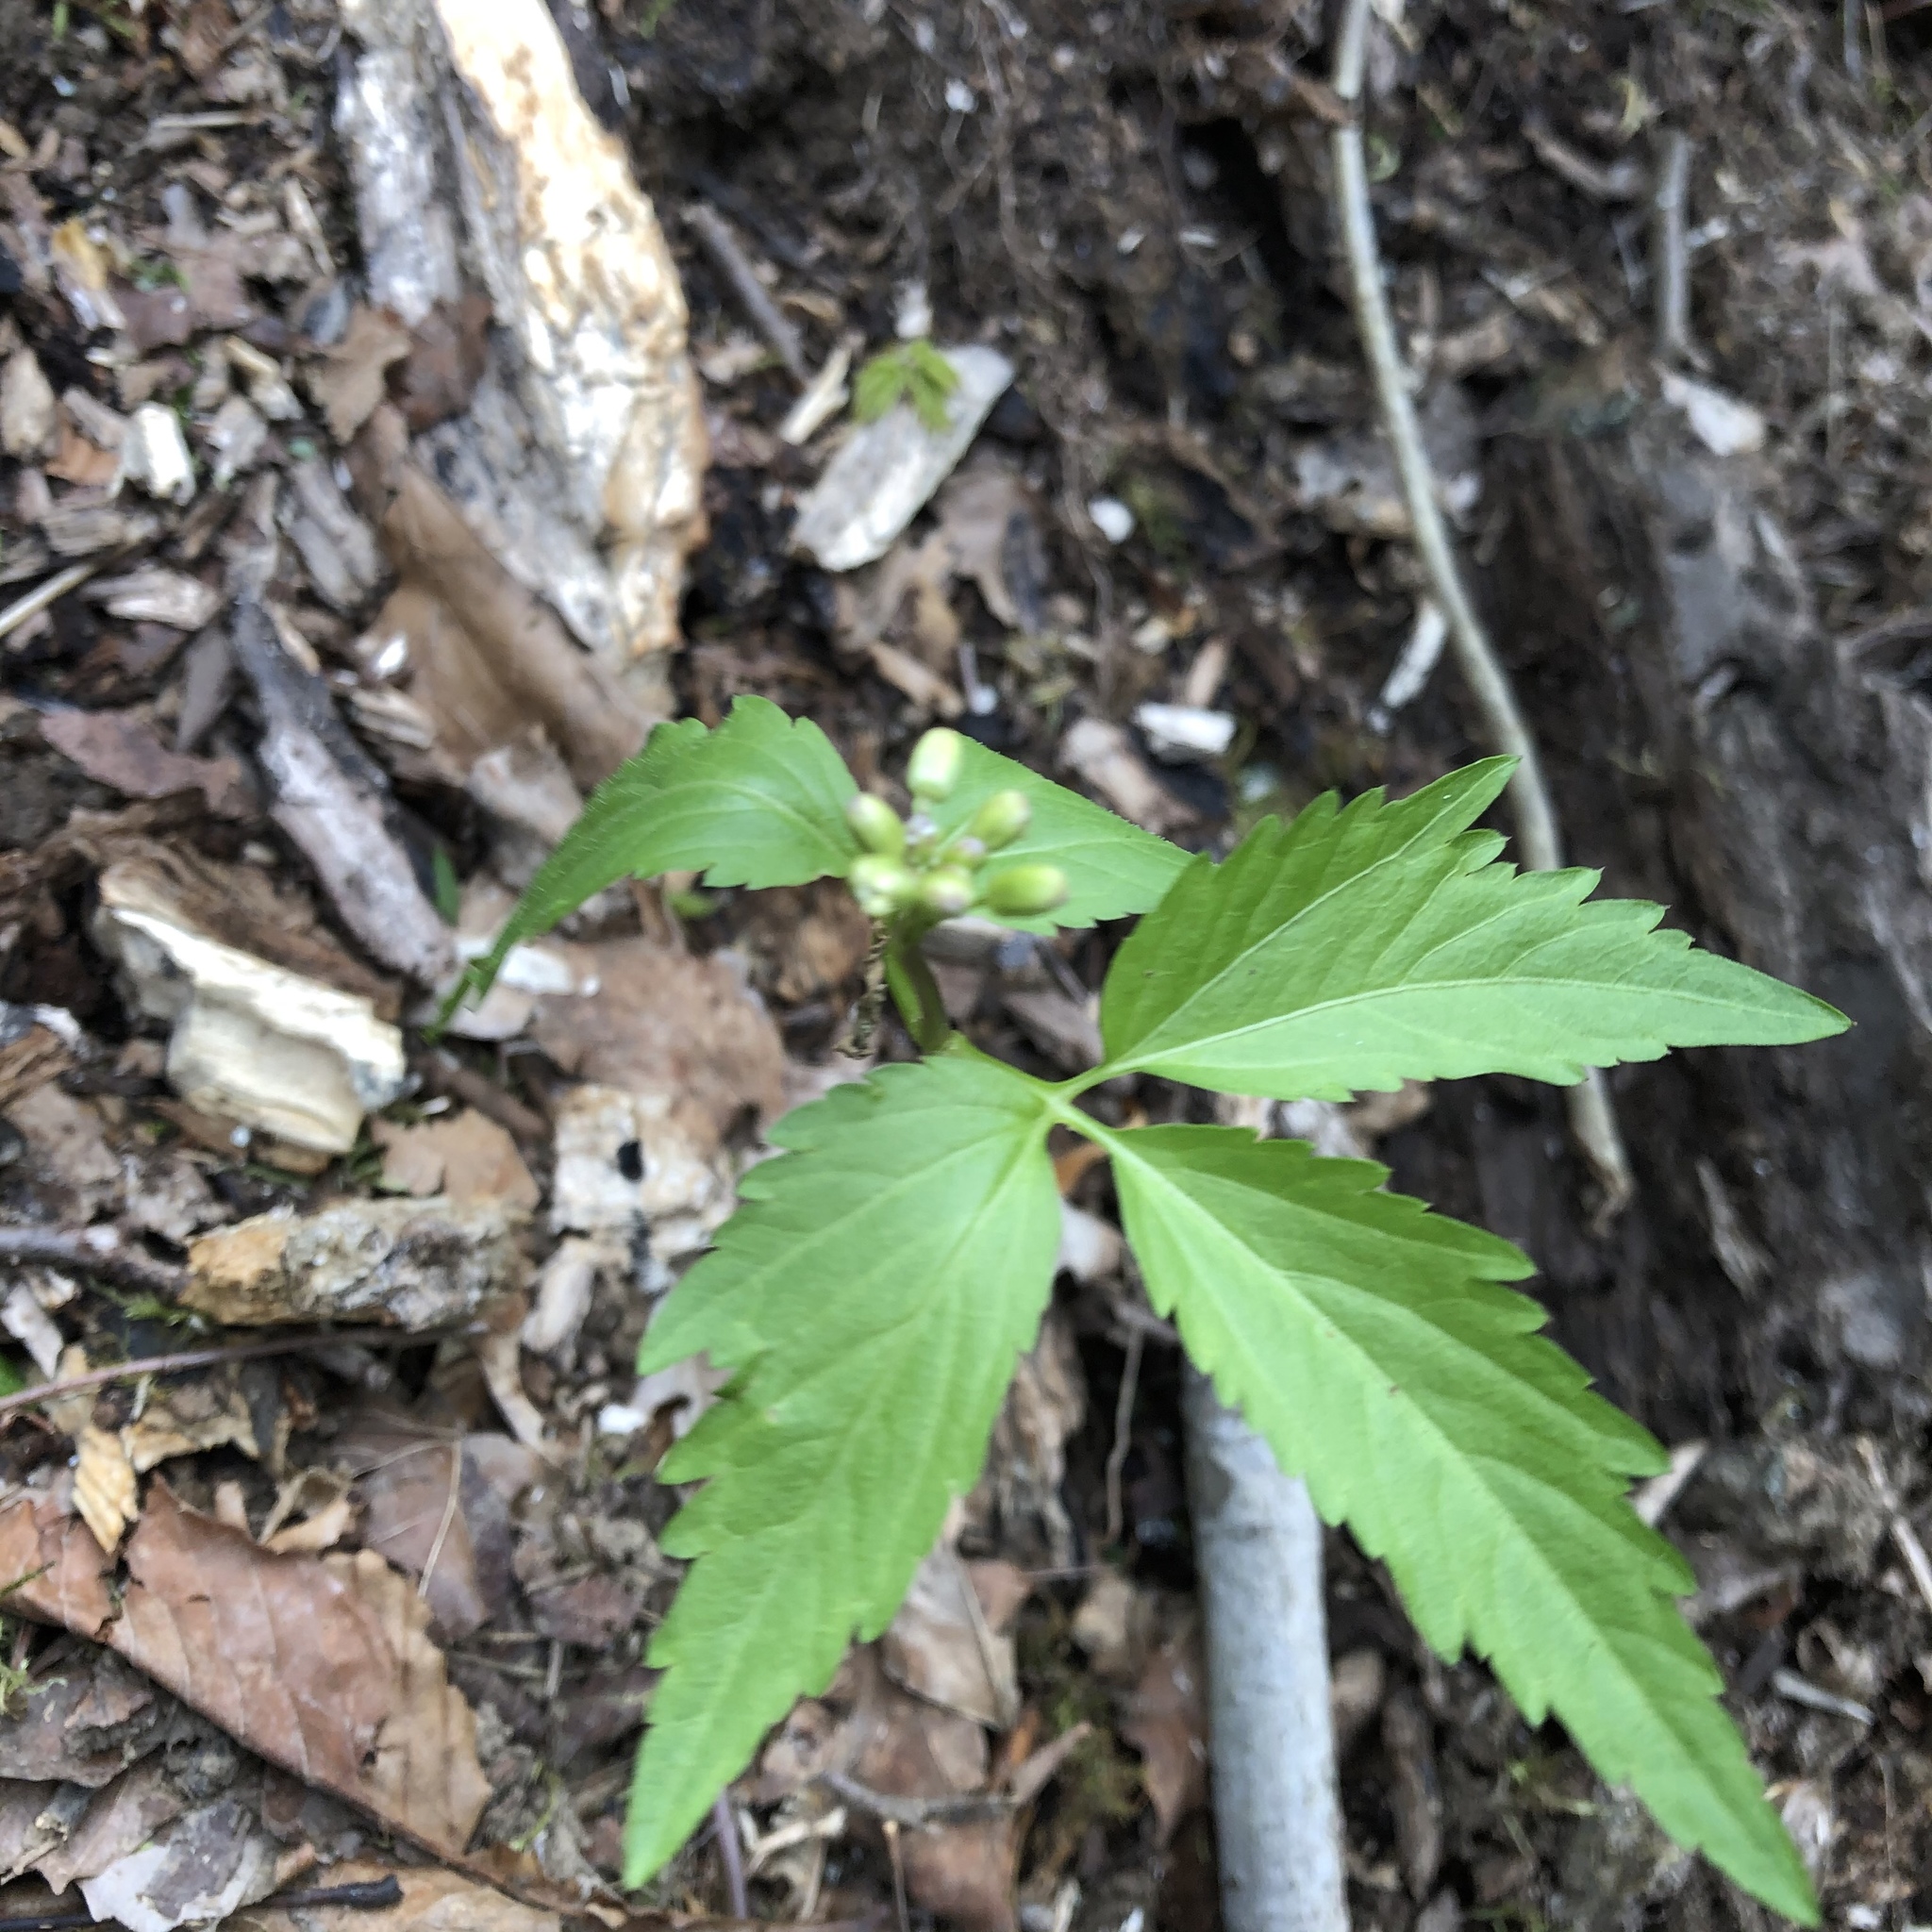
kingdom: Plantae
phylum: Tracheophyta
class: Magnoliopsida
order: Brassicales
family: Brassicaceae
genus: Cardamine
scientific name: Cardamine diphylla
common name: Broad-leaved toothwort
